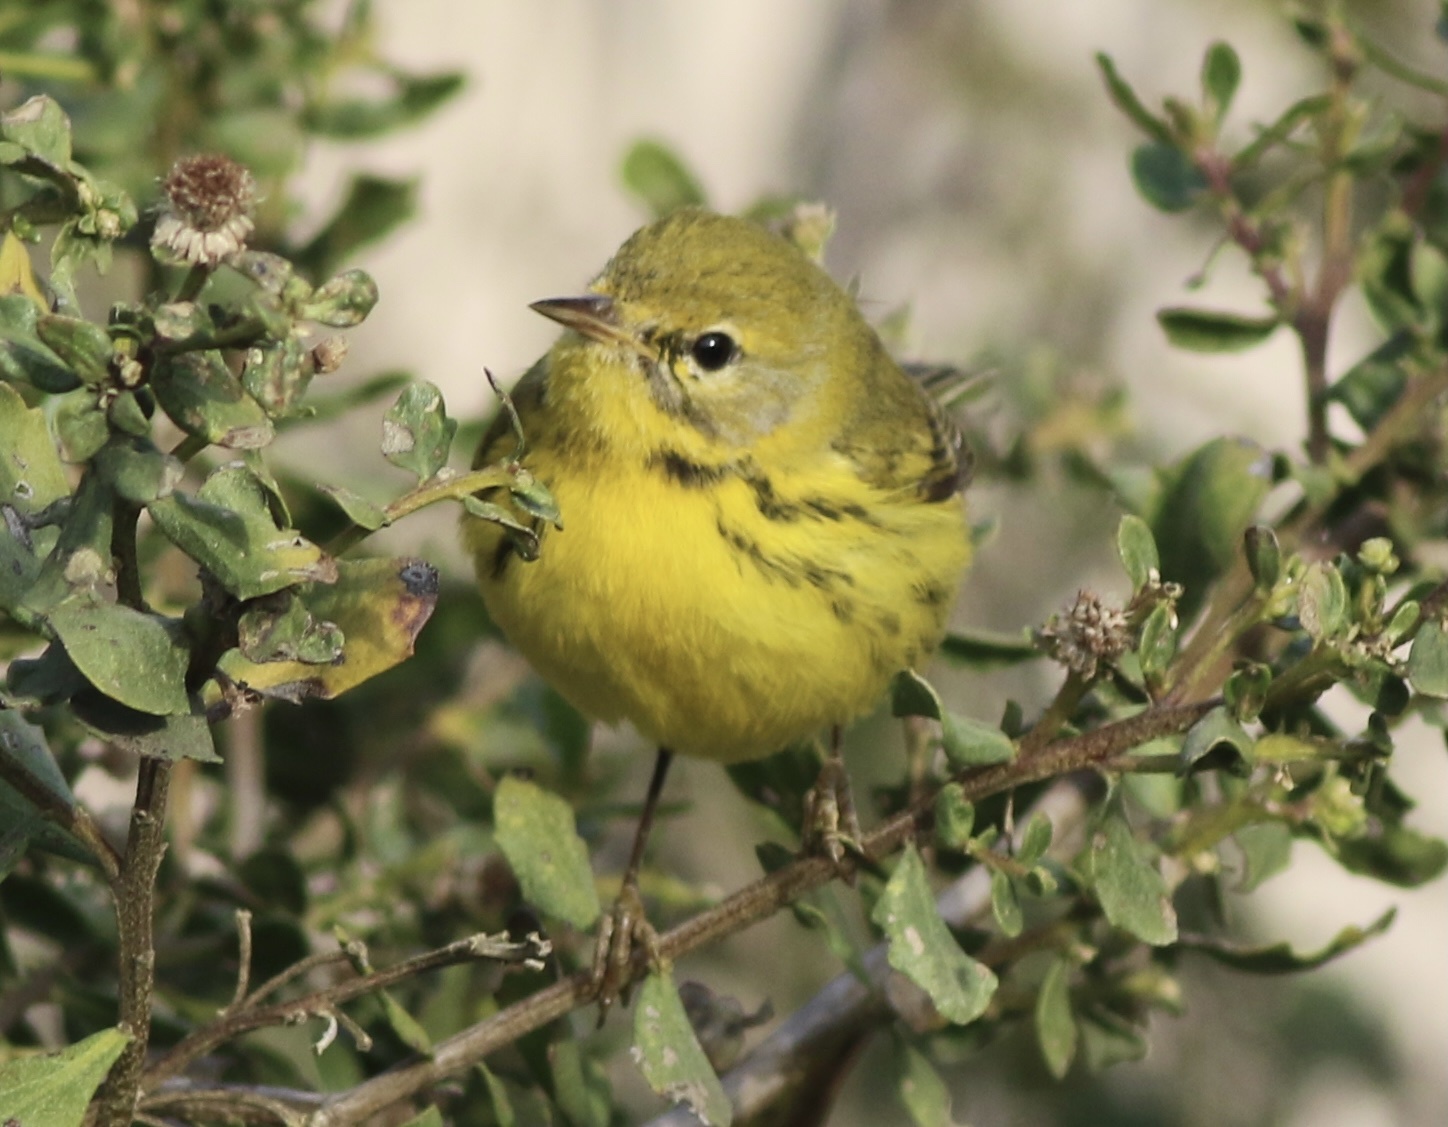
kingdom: Animalia
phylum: Chordata
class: Aves
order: Passeriformes
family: Parulidae
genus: Setophaga
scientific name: Setophaga discolor
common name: Prairie warbler
